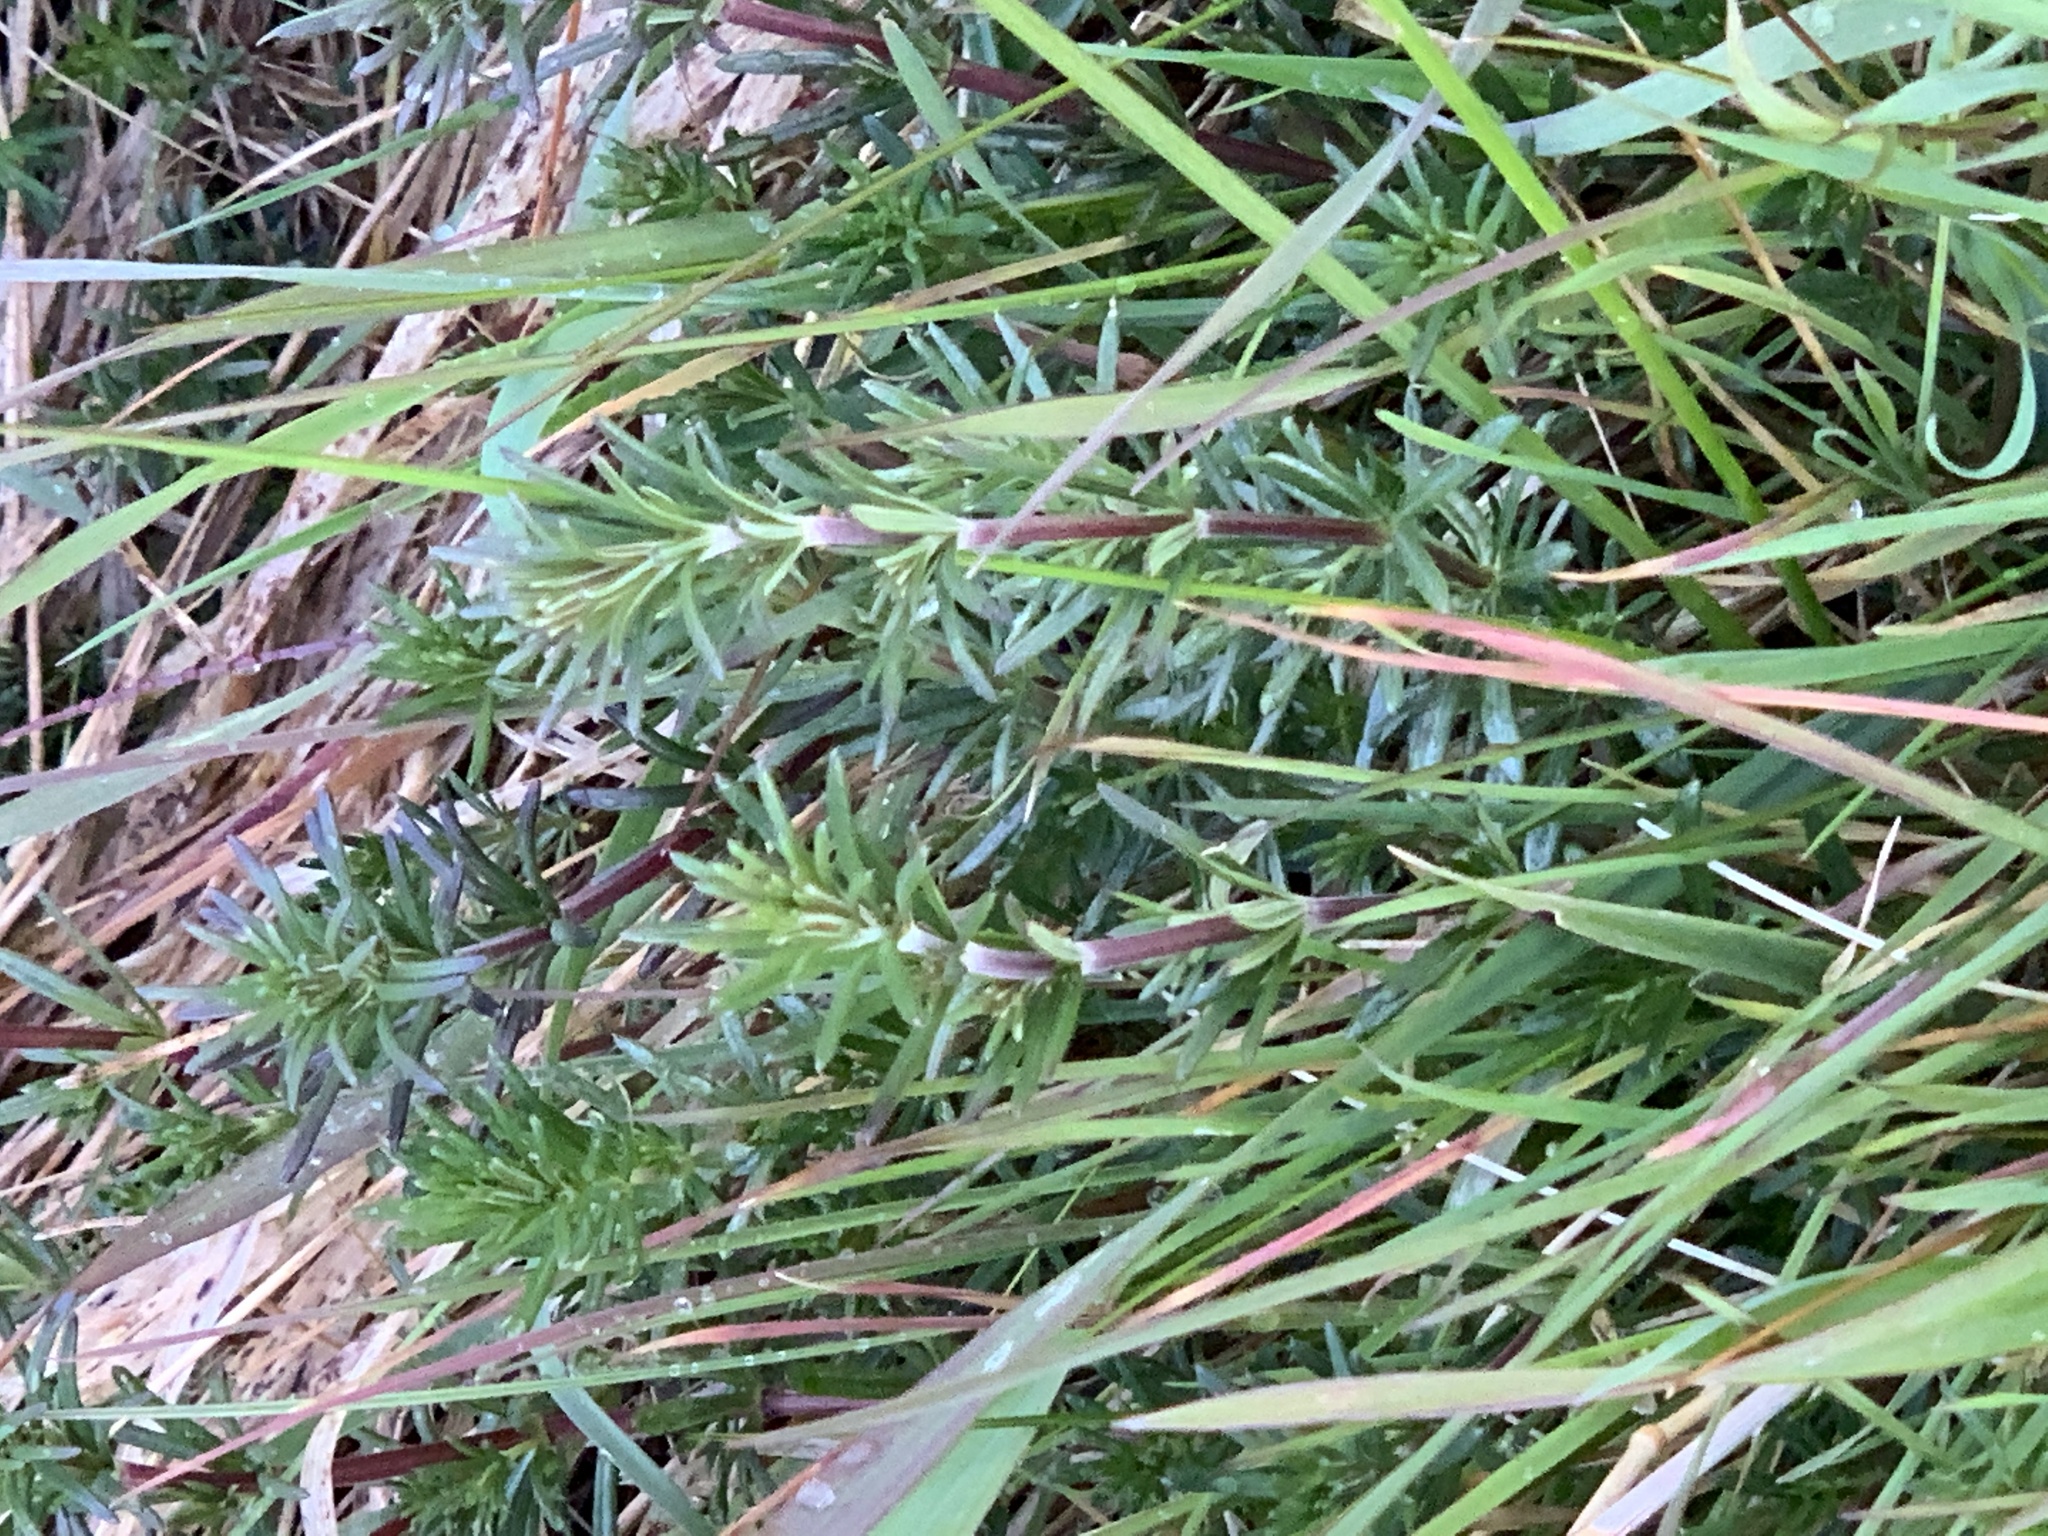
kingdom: Plantae
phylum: Tracheophyta
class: Magnoliopsida
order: Gentianales
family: Rubiaceae
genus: Galium
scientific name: Galium verum
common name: Lady's bedstraw
